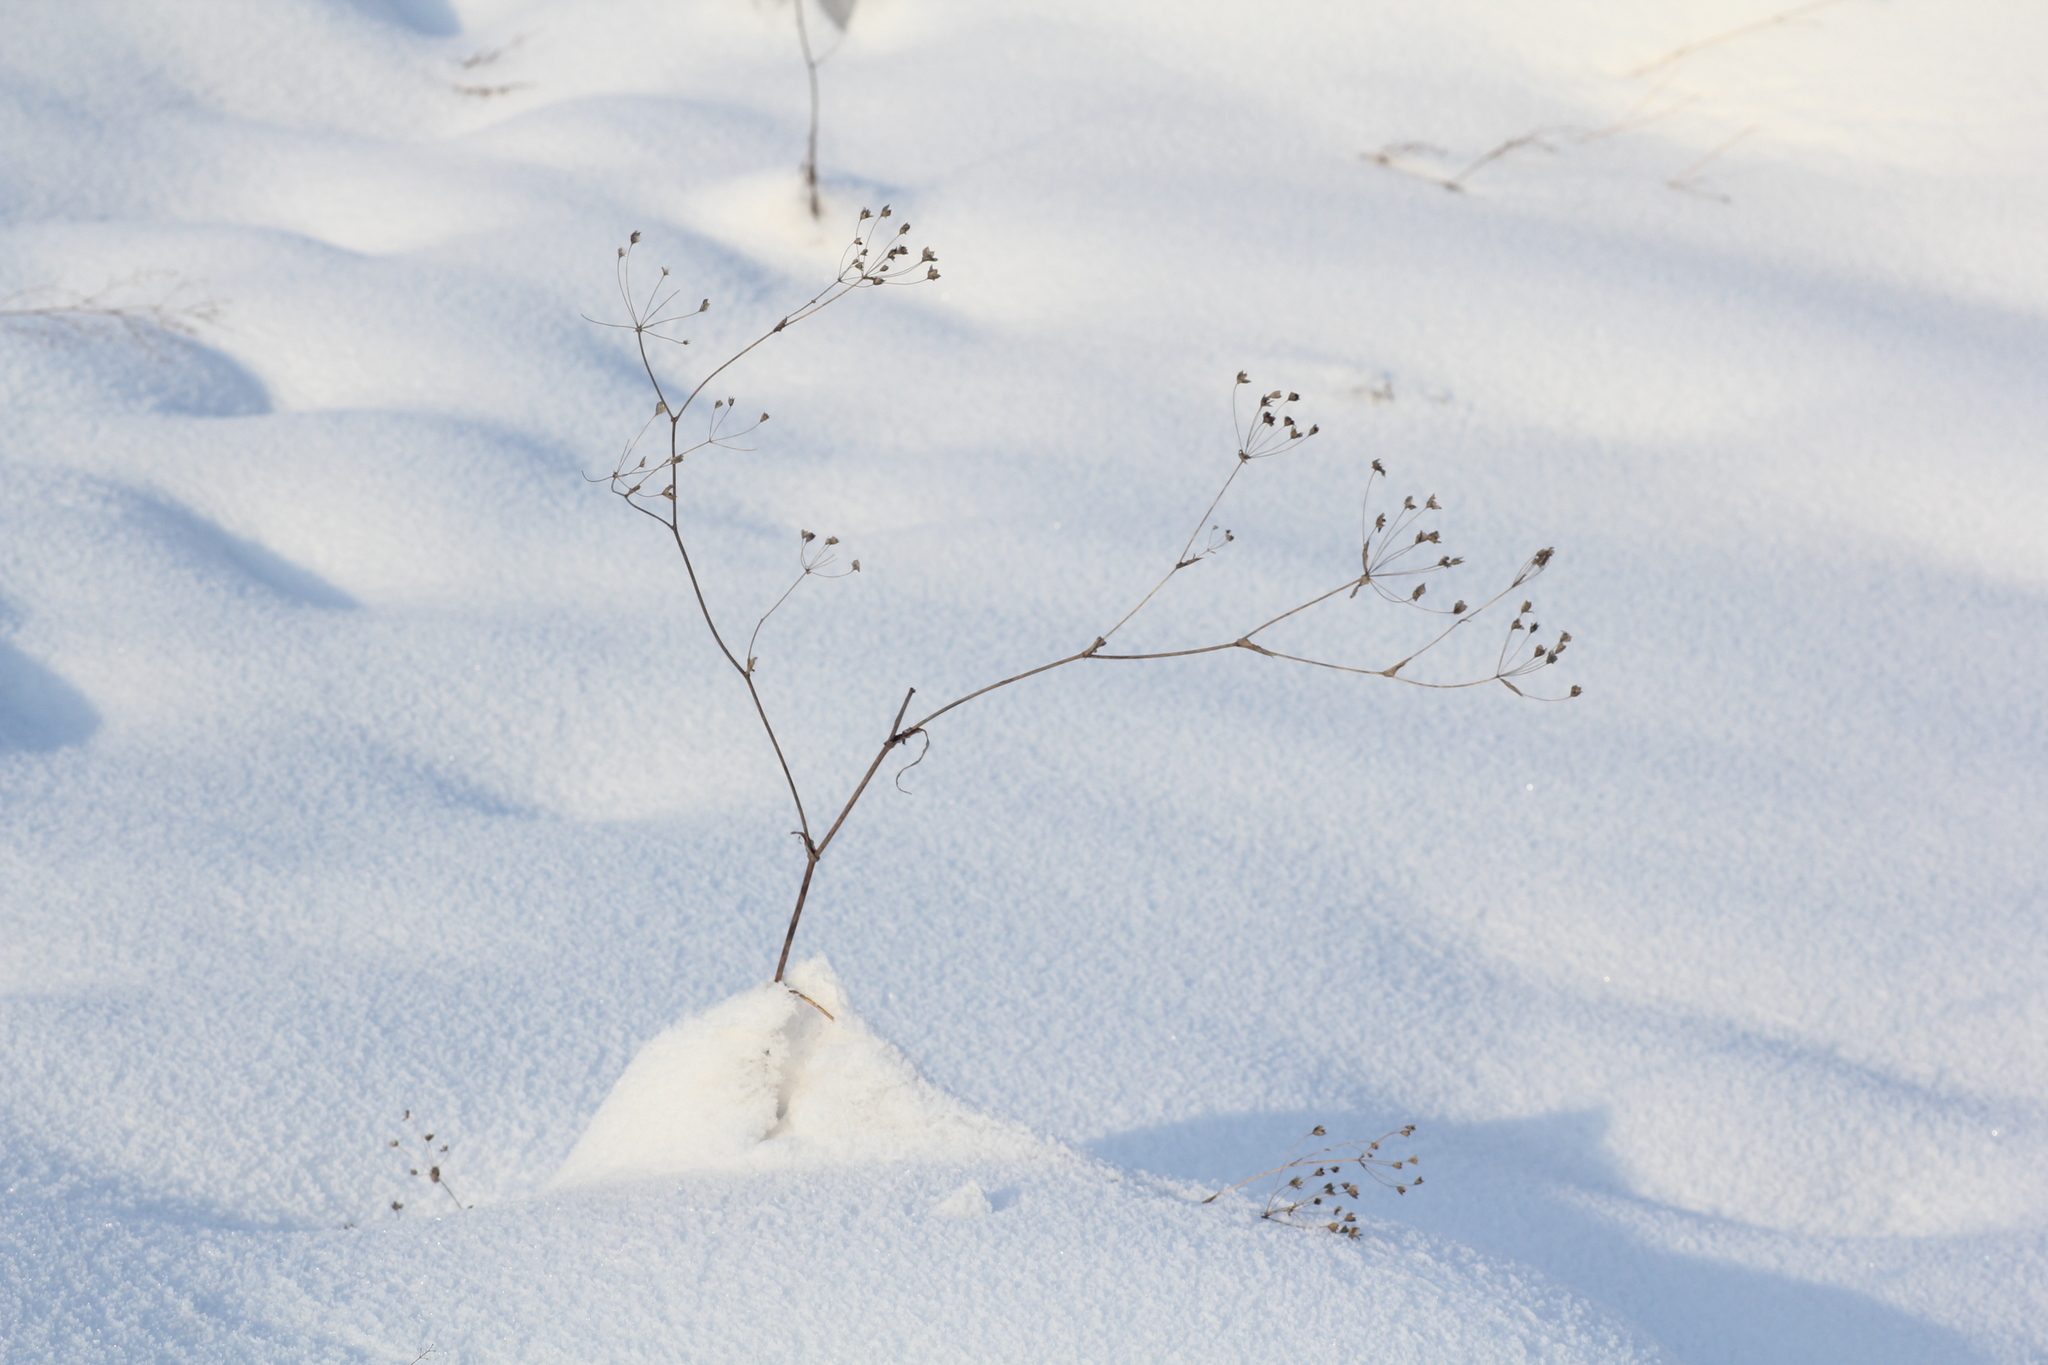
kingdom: Plantae
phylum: Tracheophyta
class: Magnoliopsida
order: Apiales
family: Apiaceae
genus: Bupleurum
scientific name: Bupleurum multinerve
